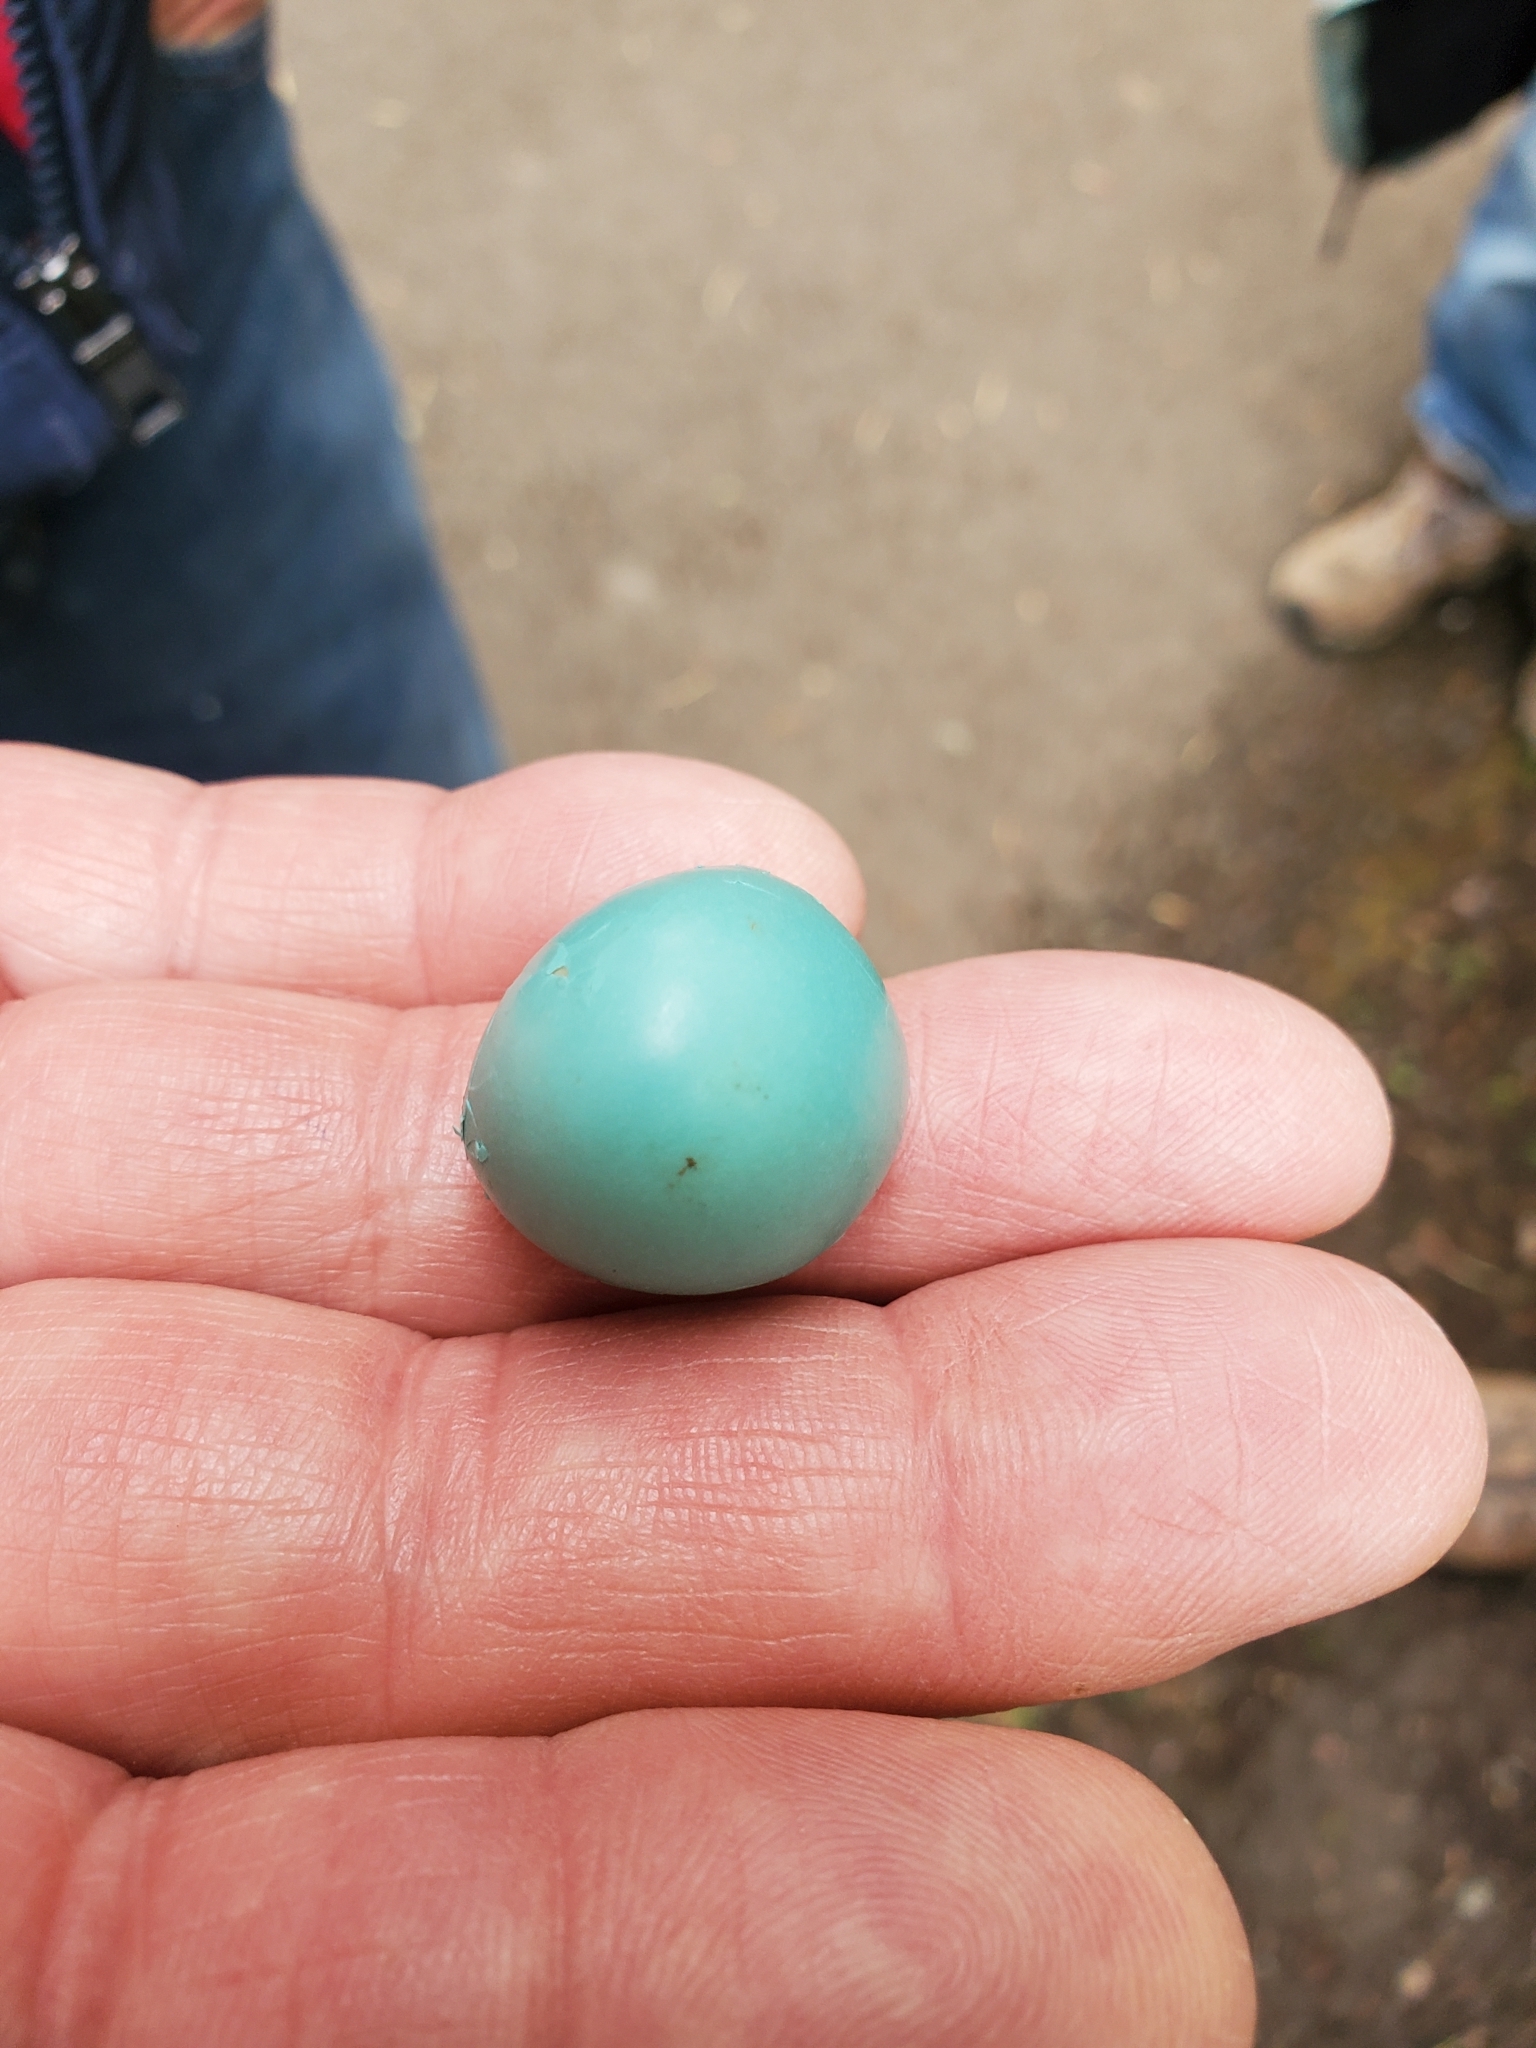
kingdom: Animalia
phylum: Chordata
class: Aves
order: Passeriformes
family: Turdidae
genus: Turdus
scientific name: Turdus migratorius
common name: American robin
